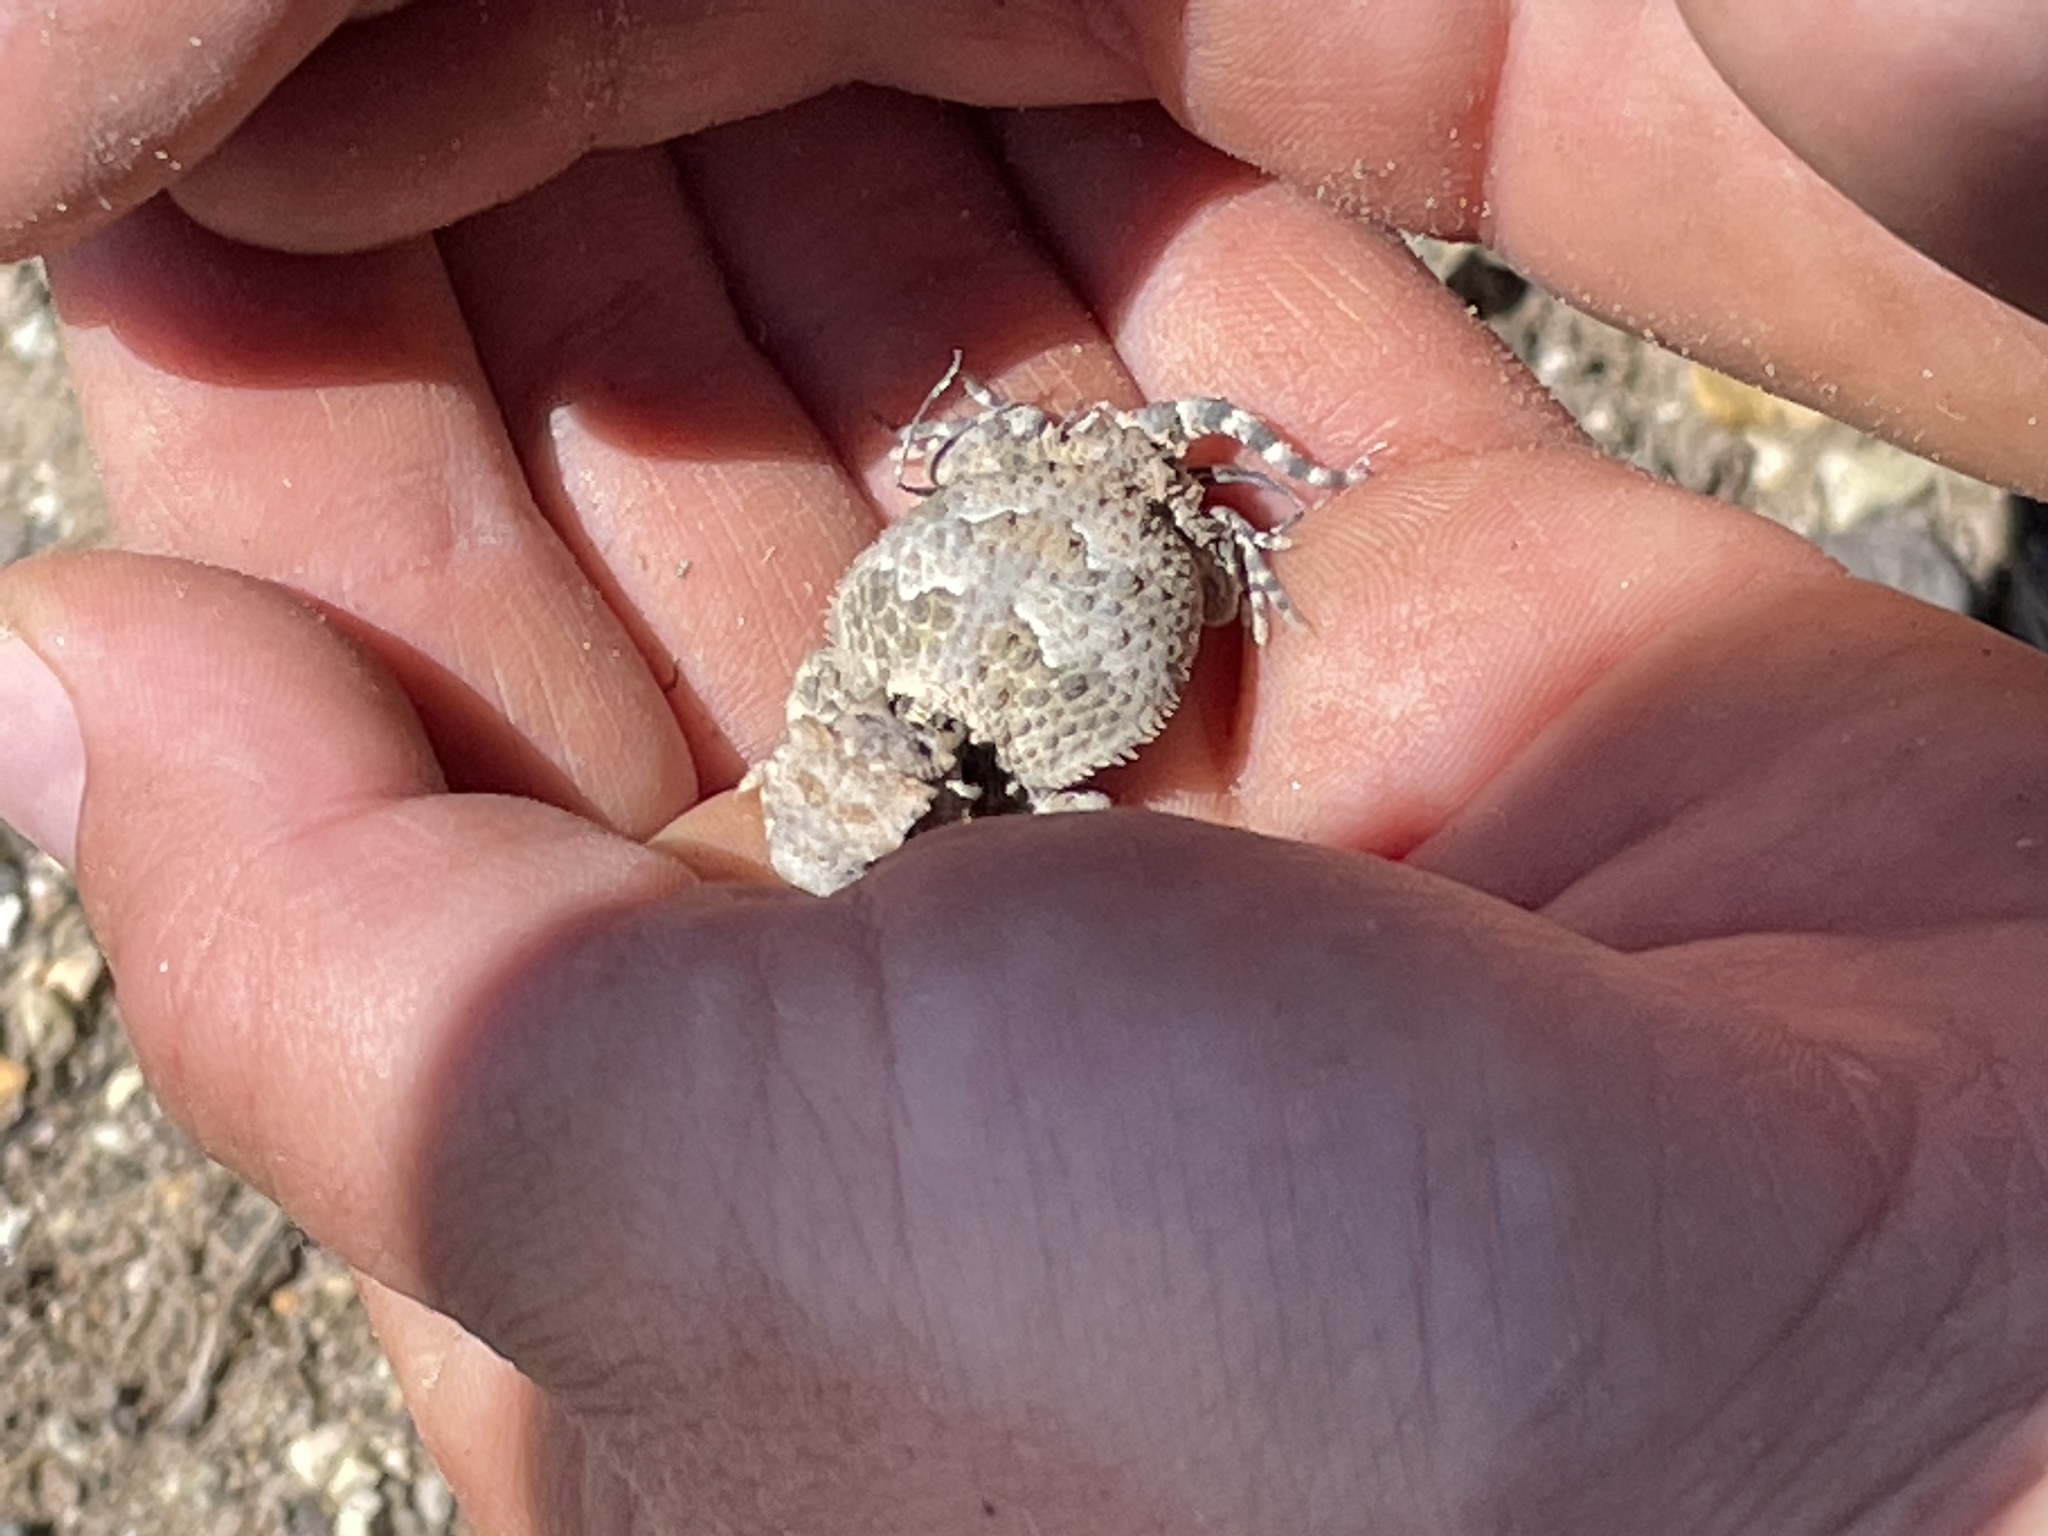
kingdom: Animalia
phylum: Chordata
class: Squamata
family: Phrynosomatidae
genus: Phrynosoma
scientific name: Phrynosoma platyrhinos
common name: Desert horned lizard
